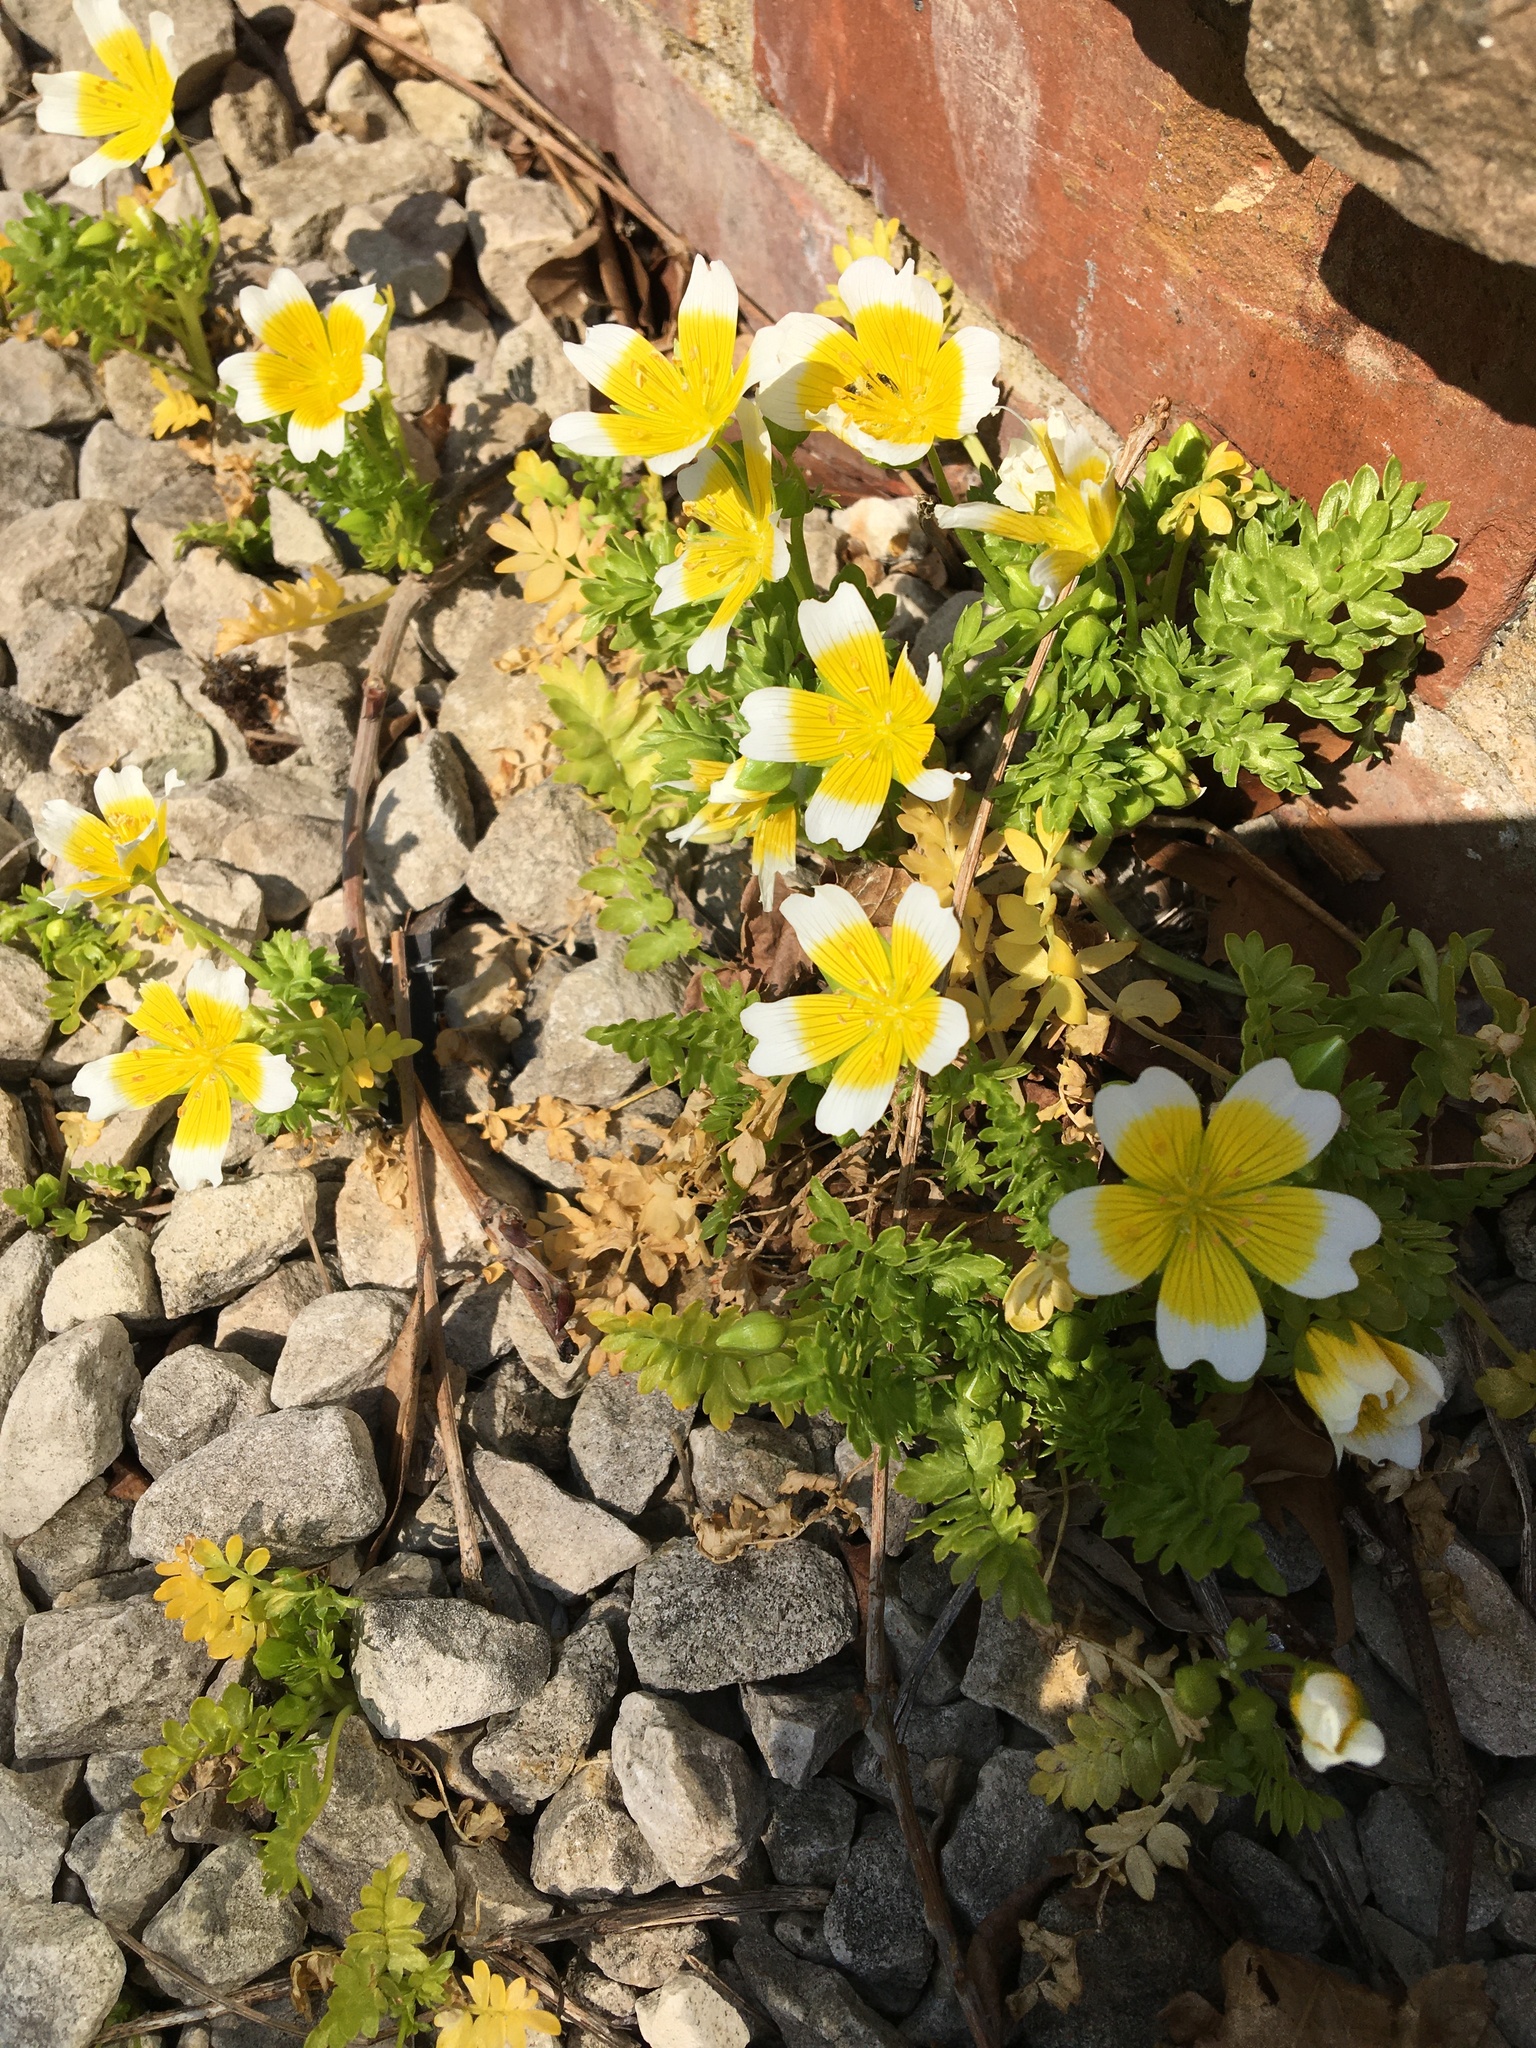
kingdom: Plantae
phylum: Tracheophyta
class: Magnoliopsida
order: Brassicales
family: Limnanthaceae
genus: Limnanthes
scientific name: Limnanthes douglasii
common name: Meadow-foam
